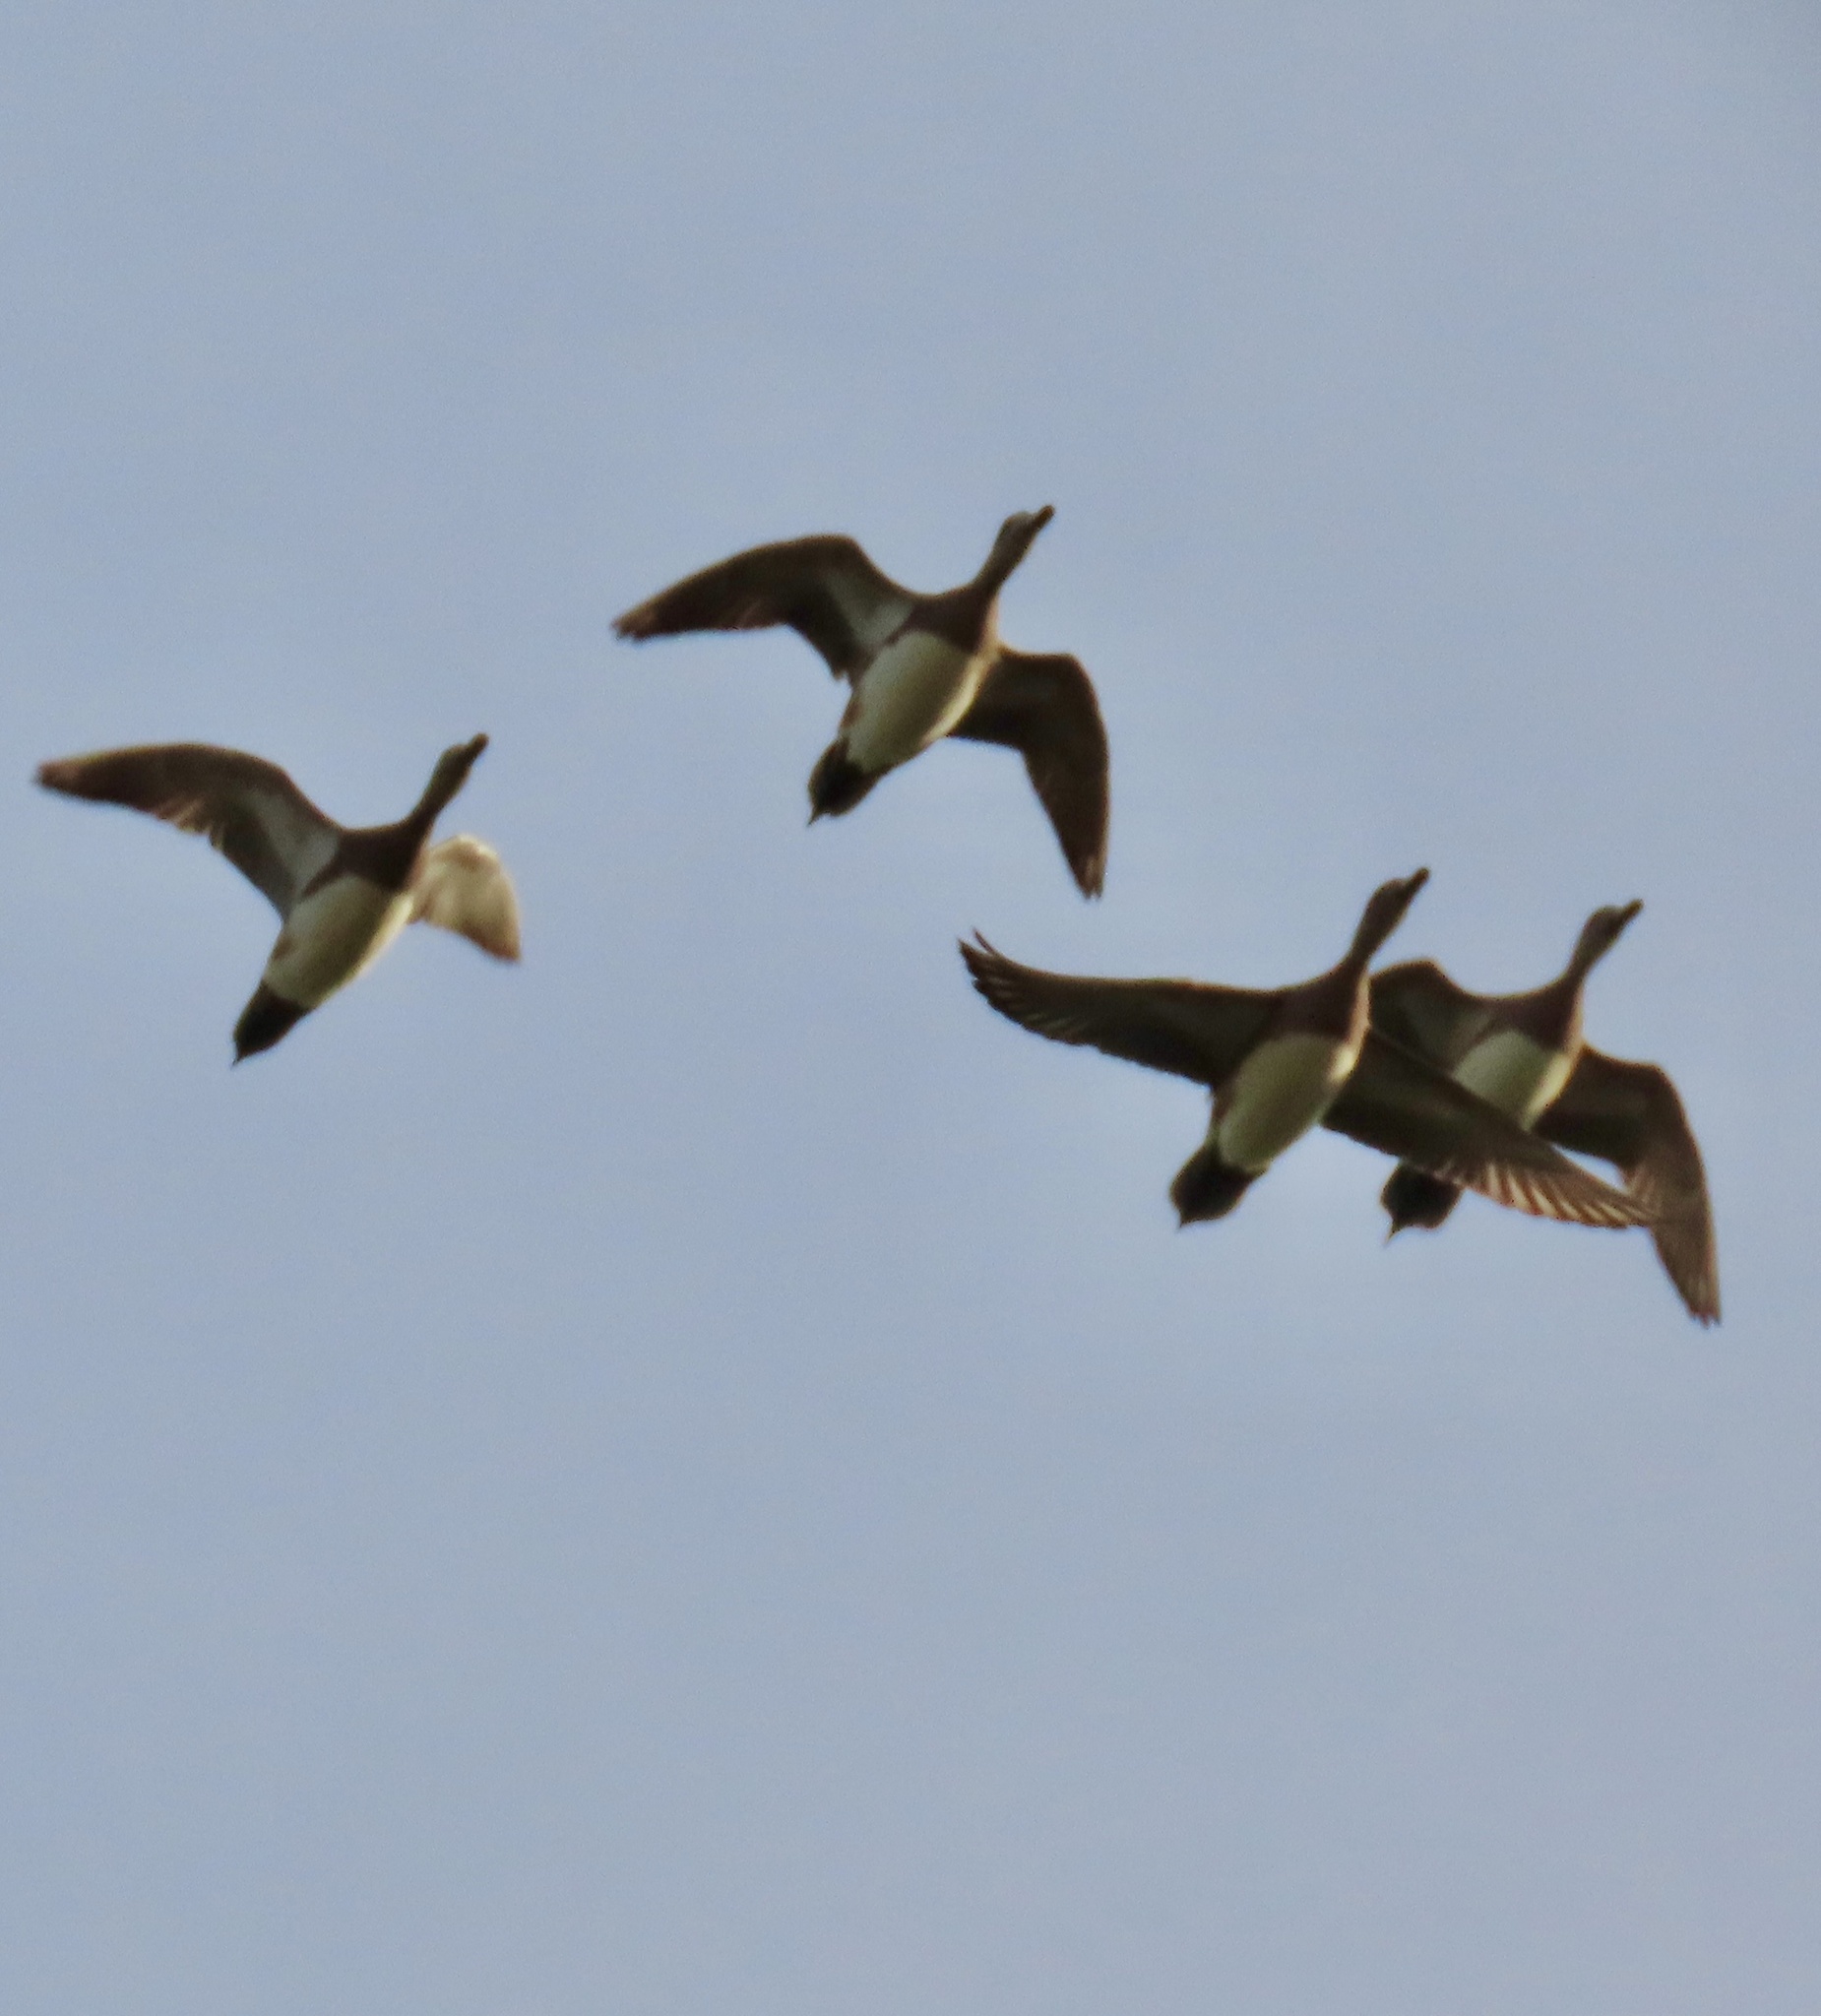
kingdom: Animalia
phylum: Chordata
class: Aves
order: Anseriformes
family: Anatidae
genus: Mareca
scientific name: Mareca americana
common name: American wigeon
